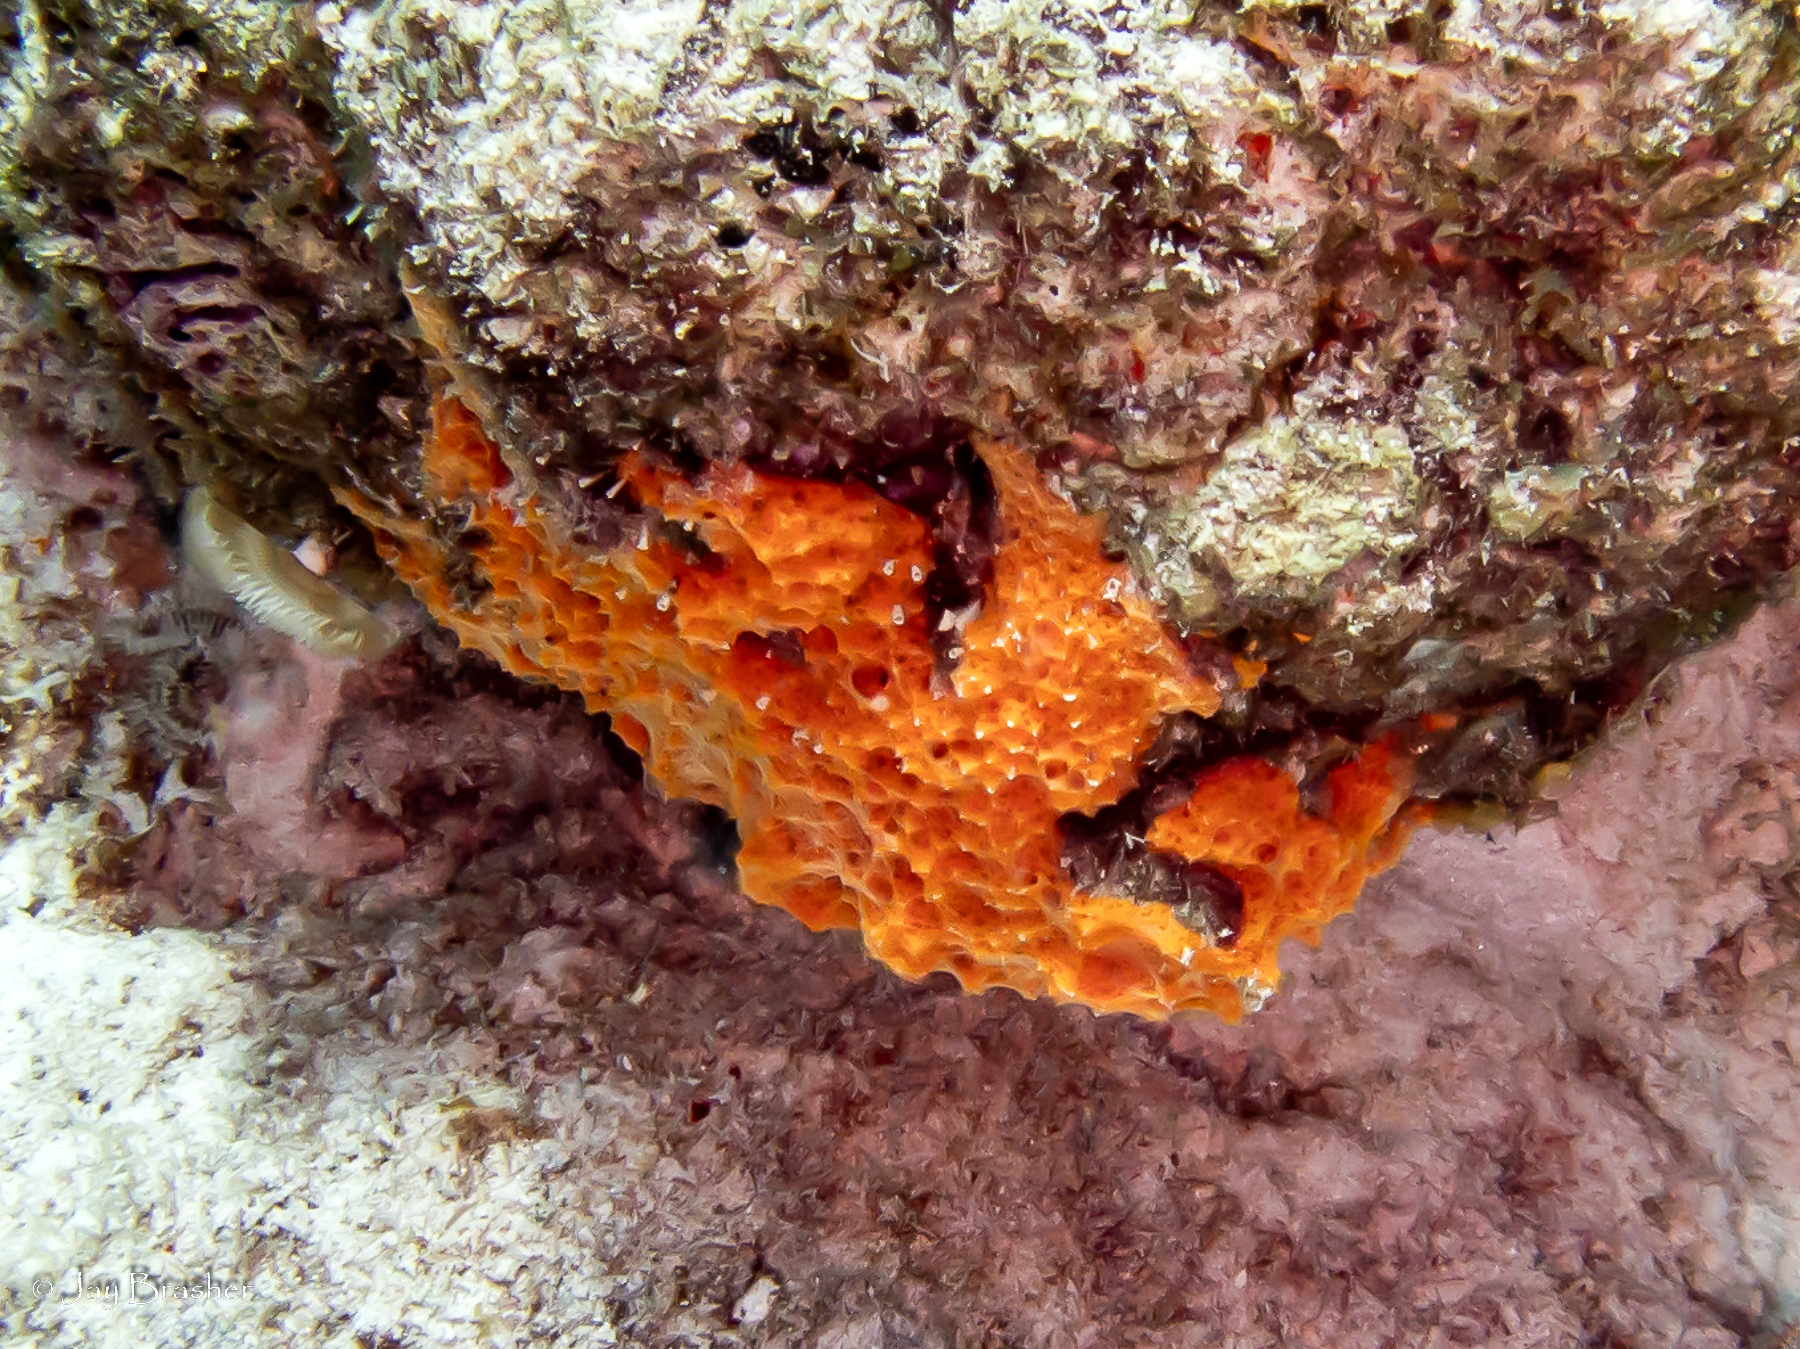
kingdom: Animalia
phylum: Porifera
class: Demospongiae
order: Scopalinida
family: Scopalinidae
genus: Scopalina
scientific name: Scopalina ruetzleri
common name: Orange lumpy encrusting sponge
